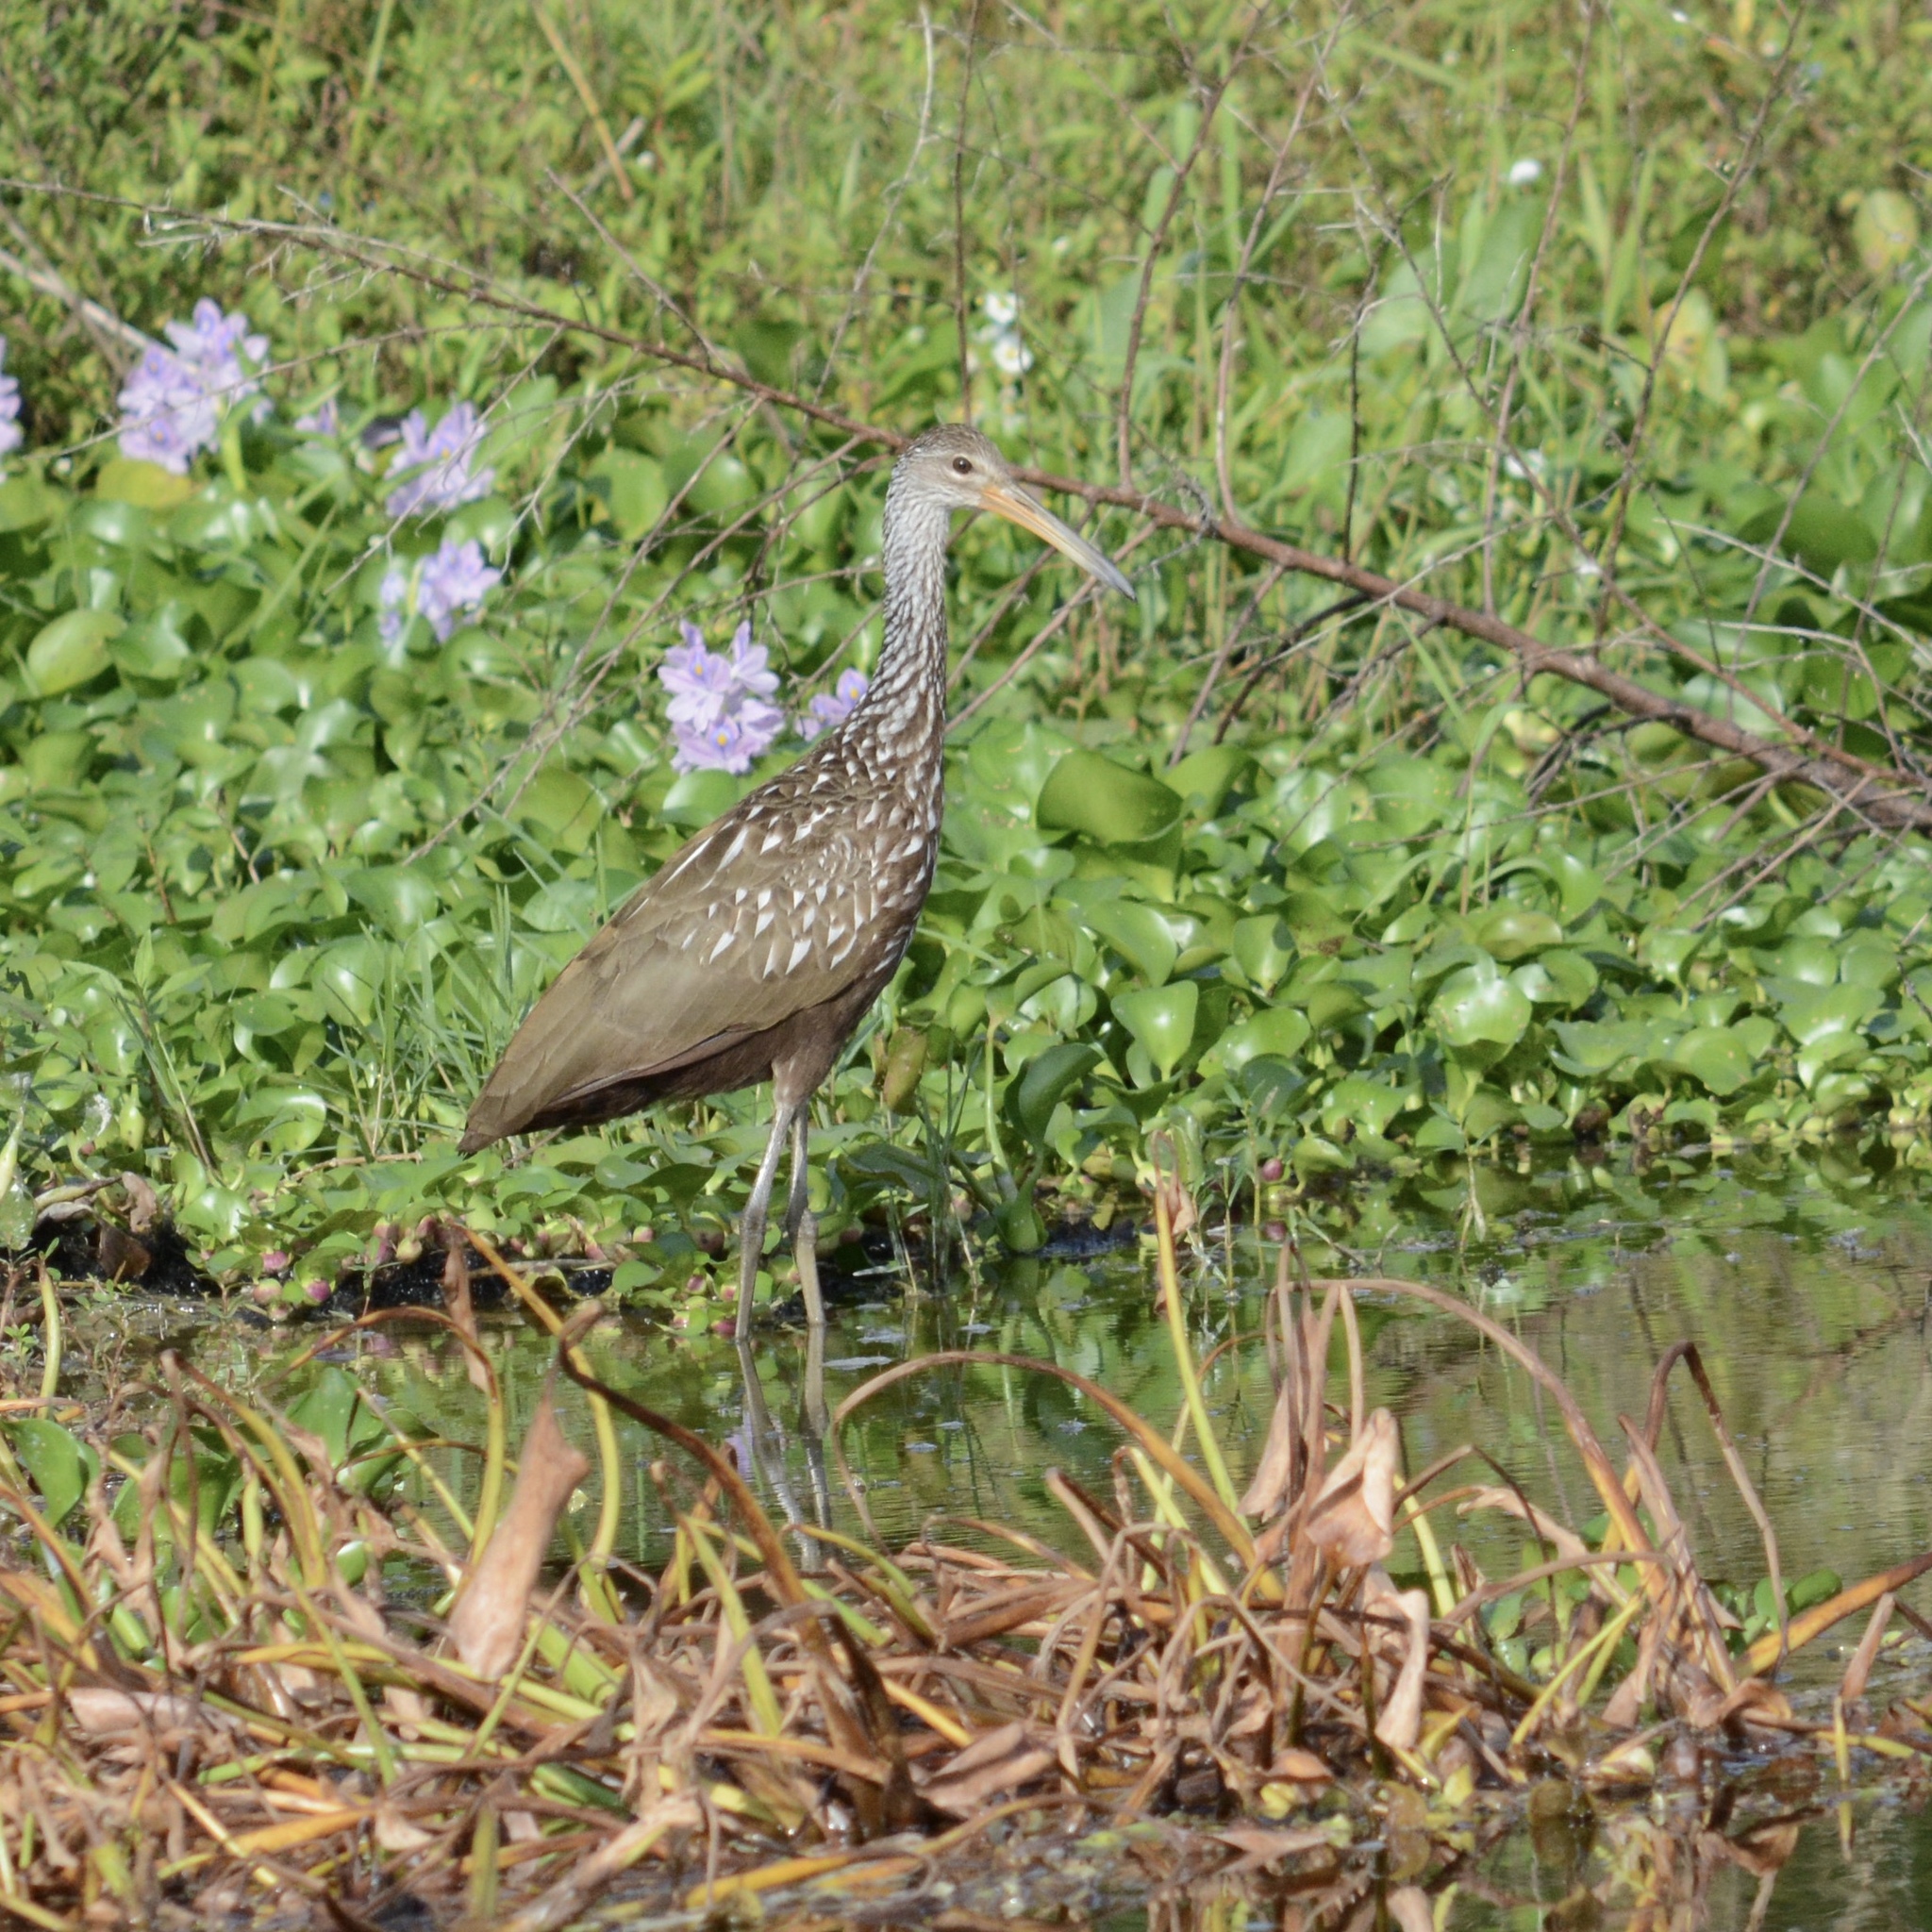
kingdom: Animalia
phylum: Chordata
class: Aves
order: Gruiformes
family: Aramidae
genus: Aramus
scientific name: Aramus guarauna
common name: Limpkin
